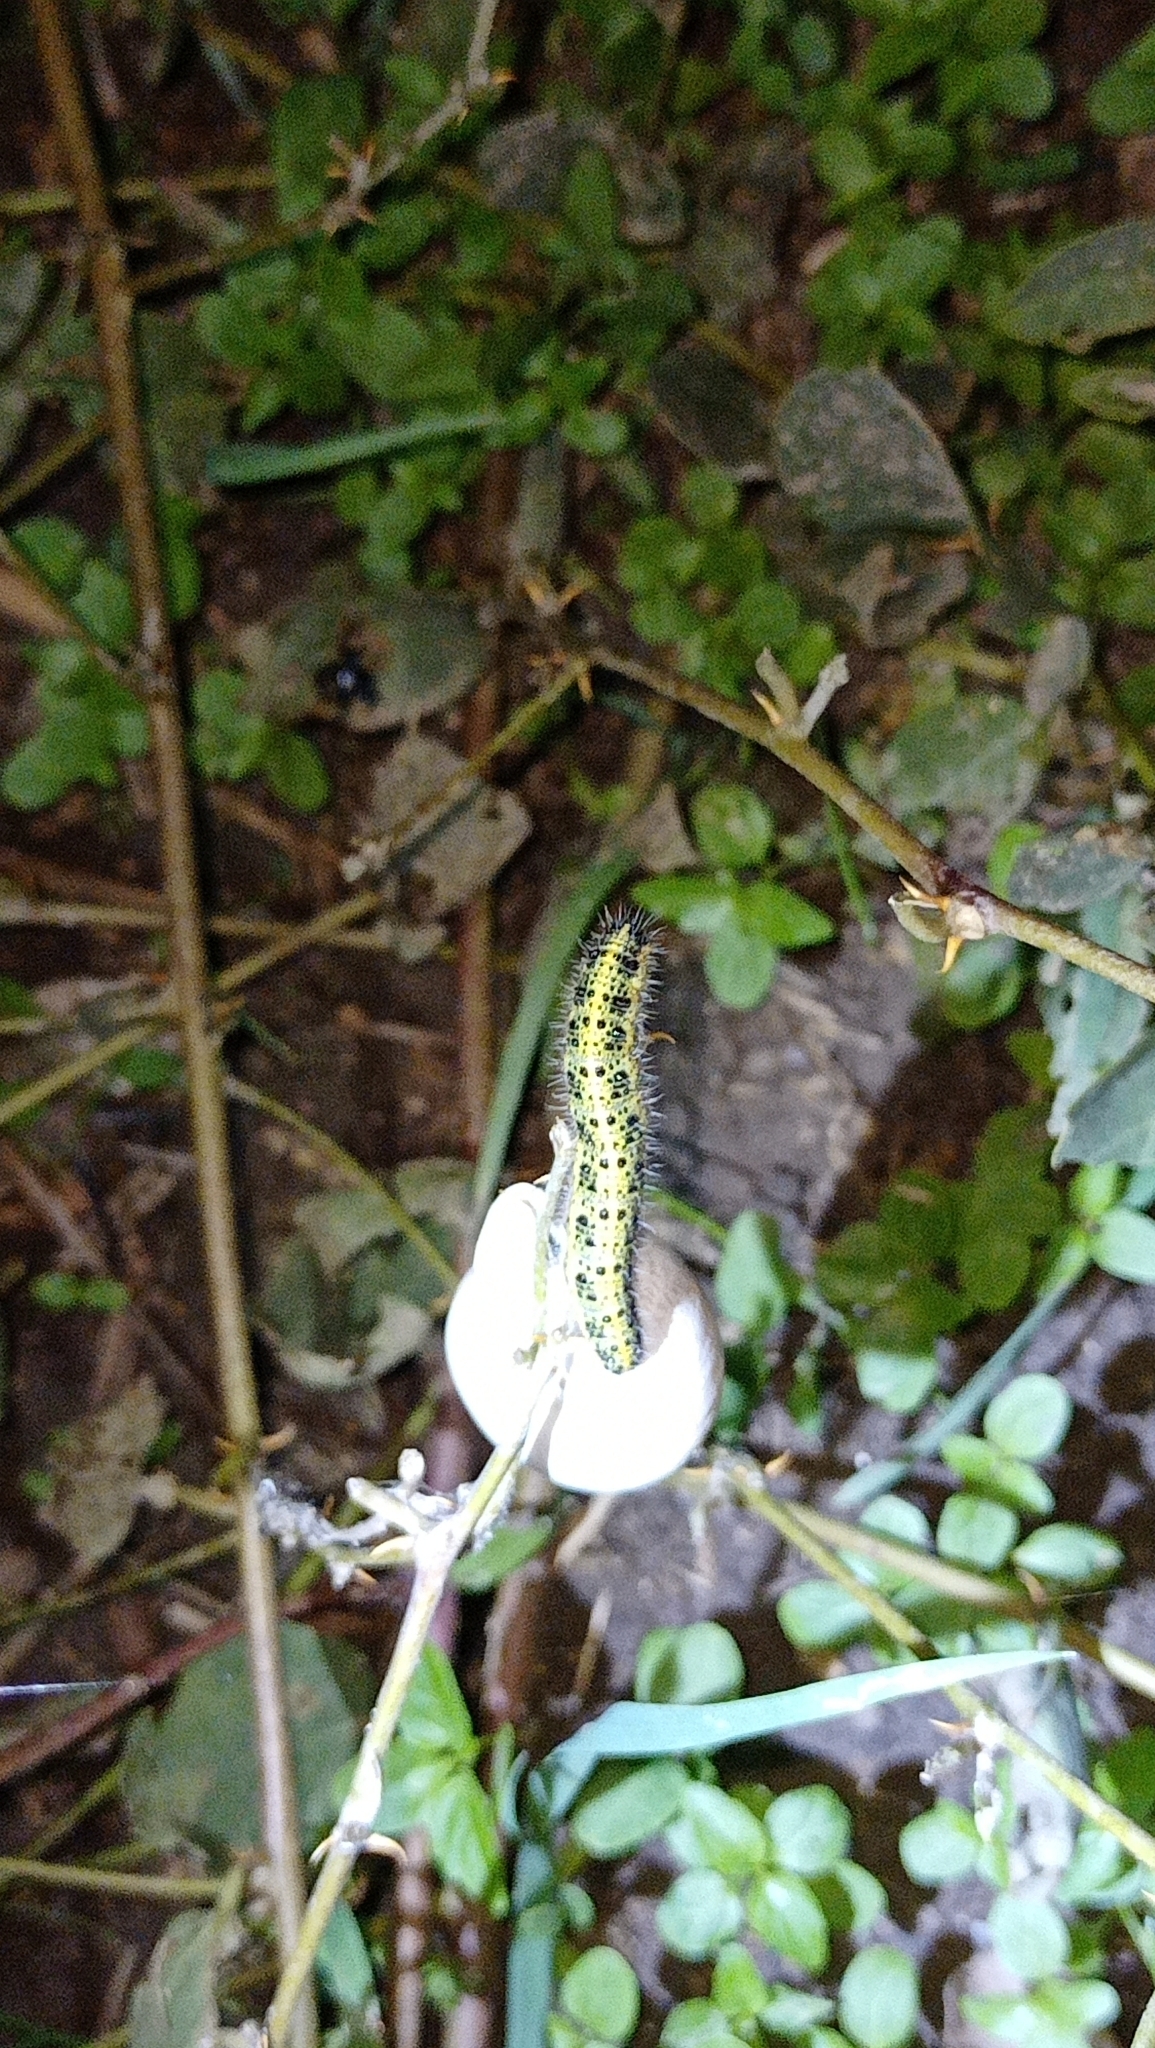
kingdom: Animalia
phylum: Arthropoda
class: Insecta
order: Lepidoptera
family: Pieridae
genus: Pieris
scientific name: Pieris brassicae
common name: Large white
